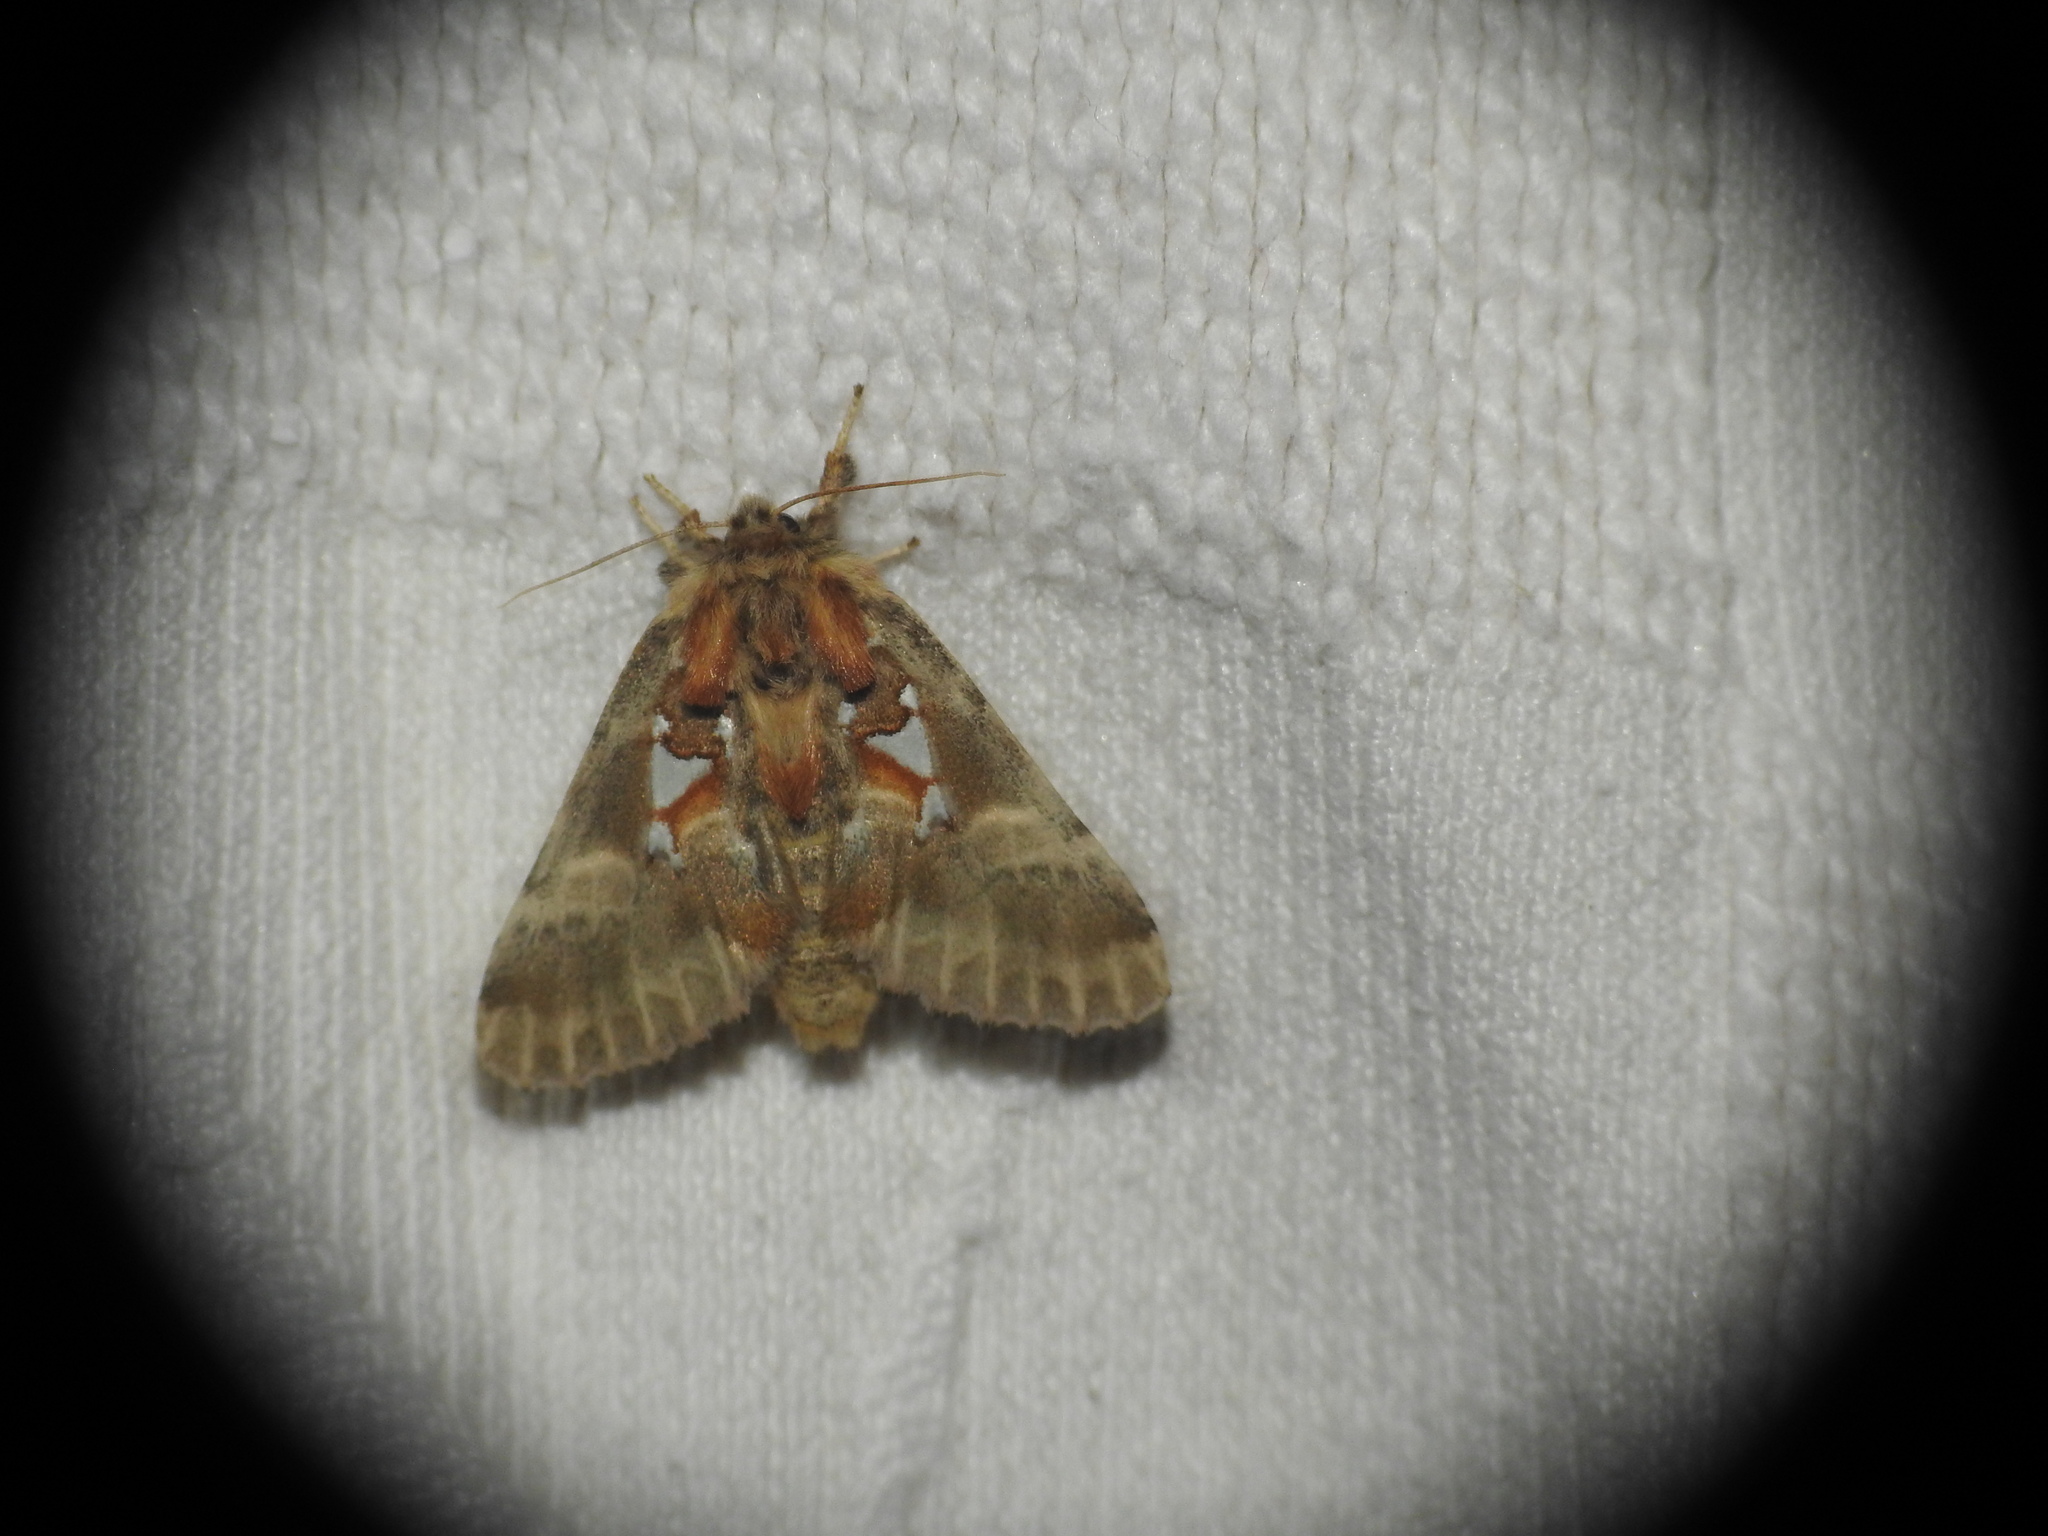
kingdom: Animalia
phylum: Arthropoda
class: Insecta
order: Lepidoptera
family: Notodontidae
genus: Spatalia
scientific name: Spatalia argentina
